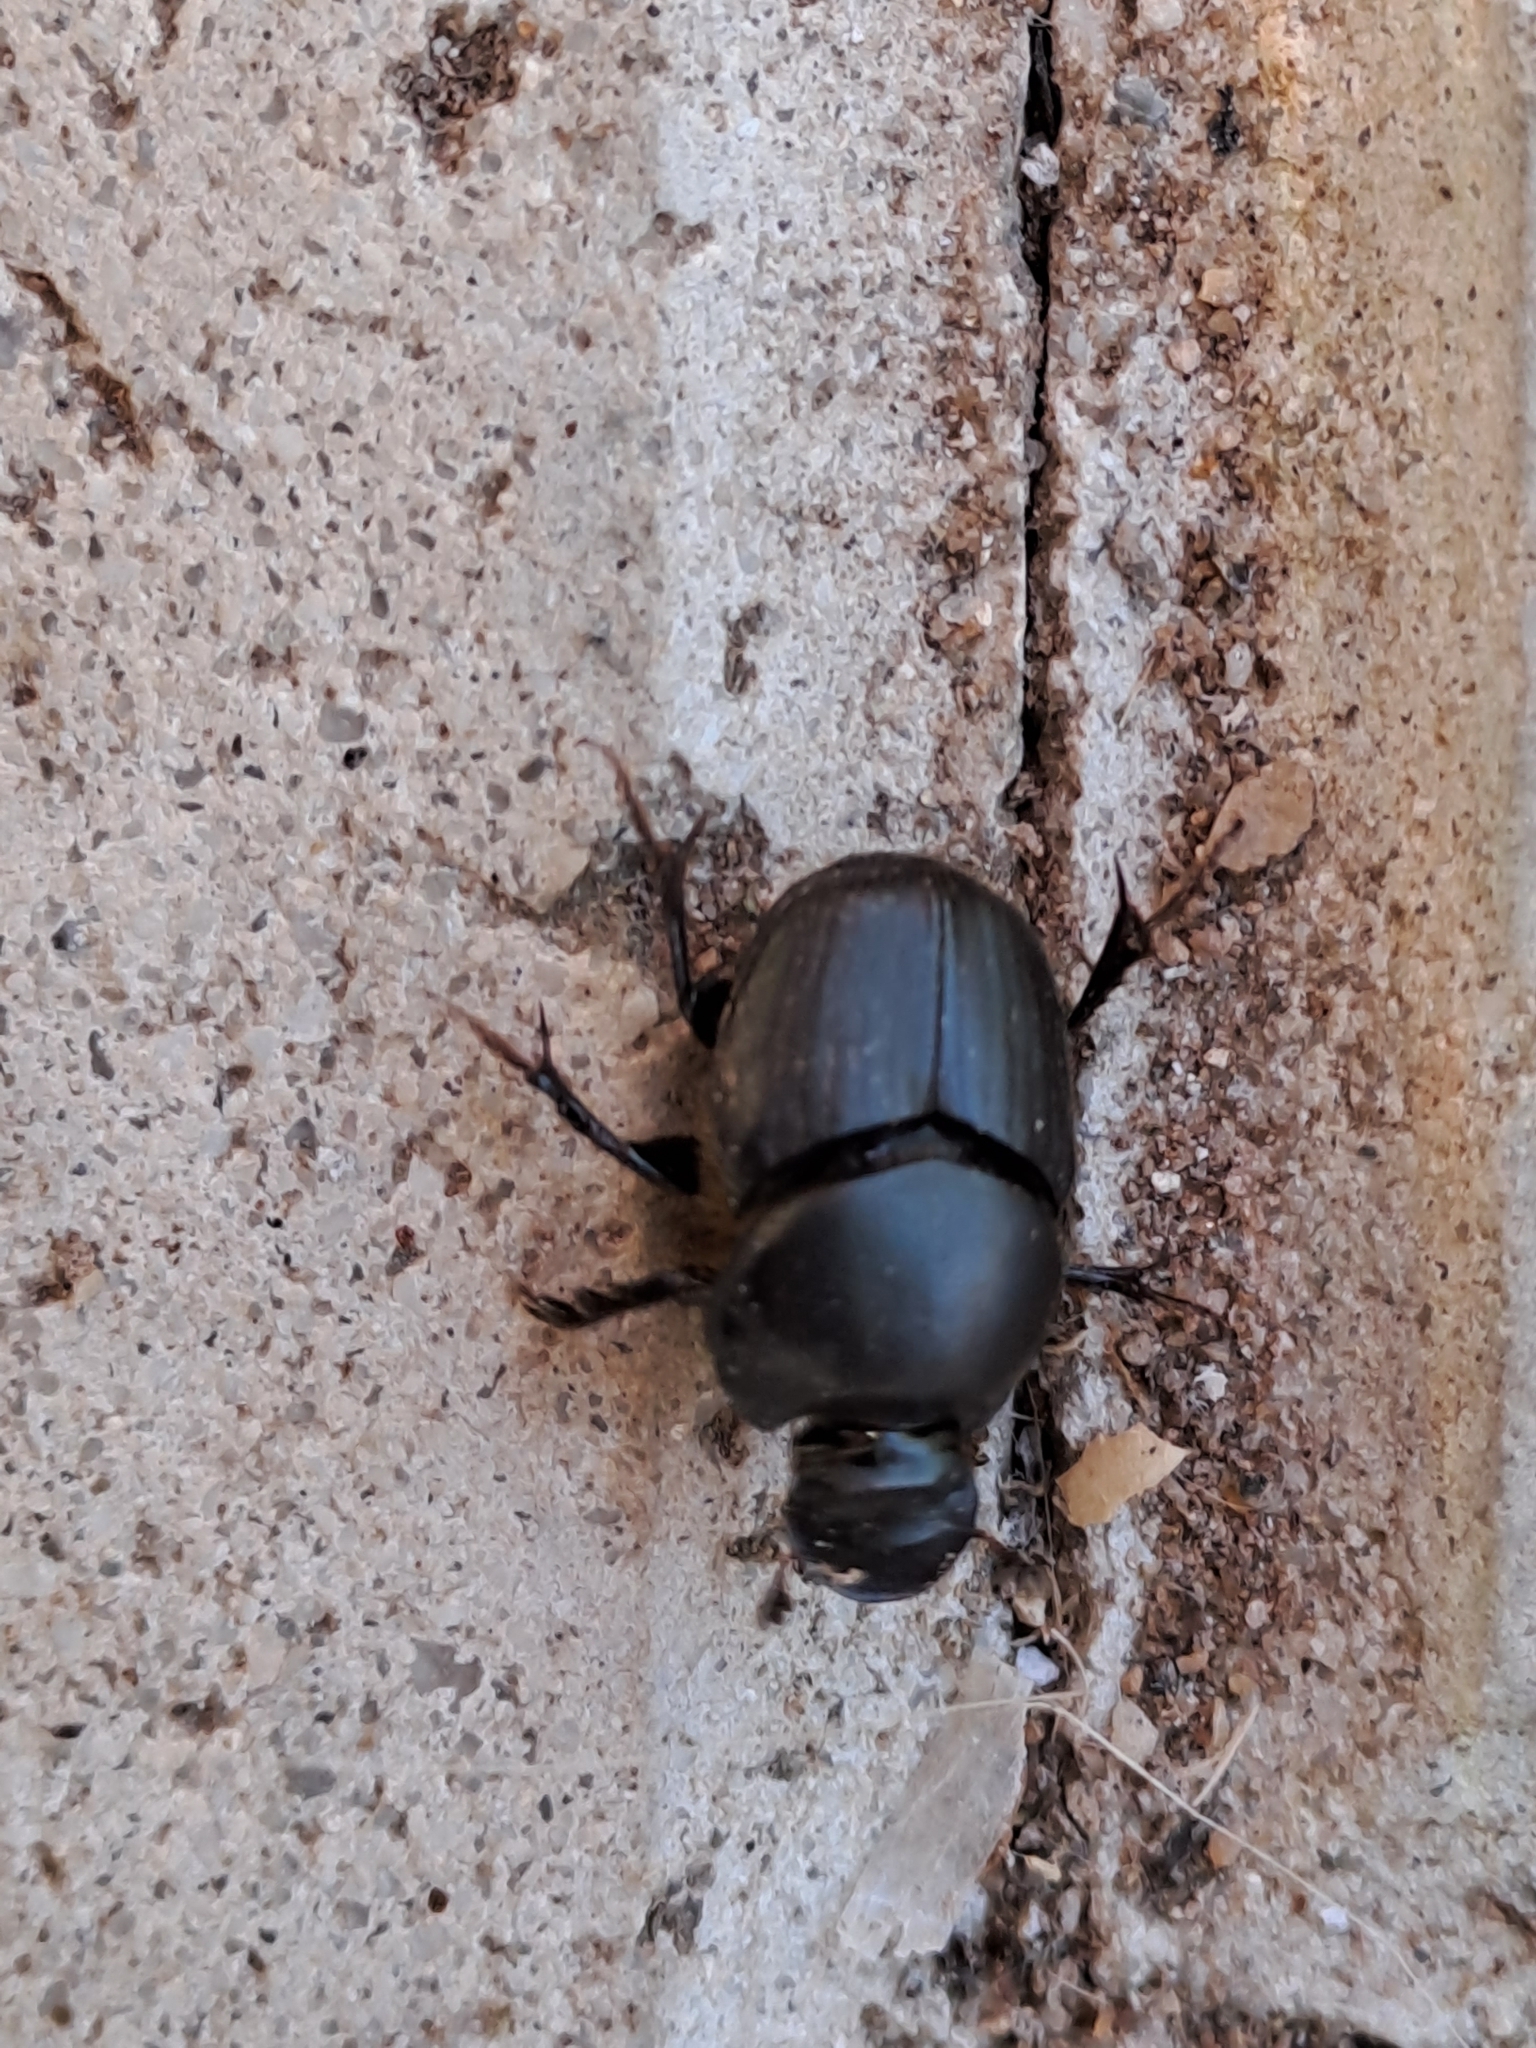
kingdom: Animalia
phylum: Arthropoda
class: Insecta
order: Coleoptera
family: Scarabaeidae
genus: Onthophagus
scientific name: Onthophagus taurus
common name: Bullhorned dung beetle
